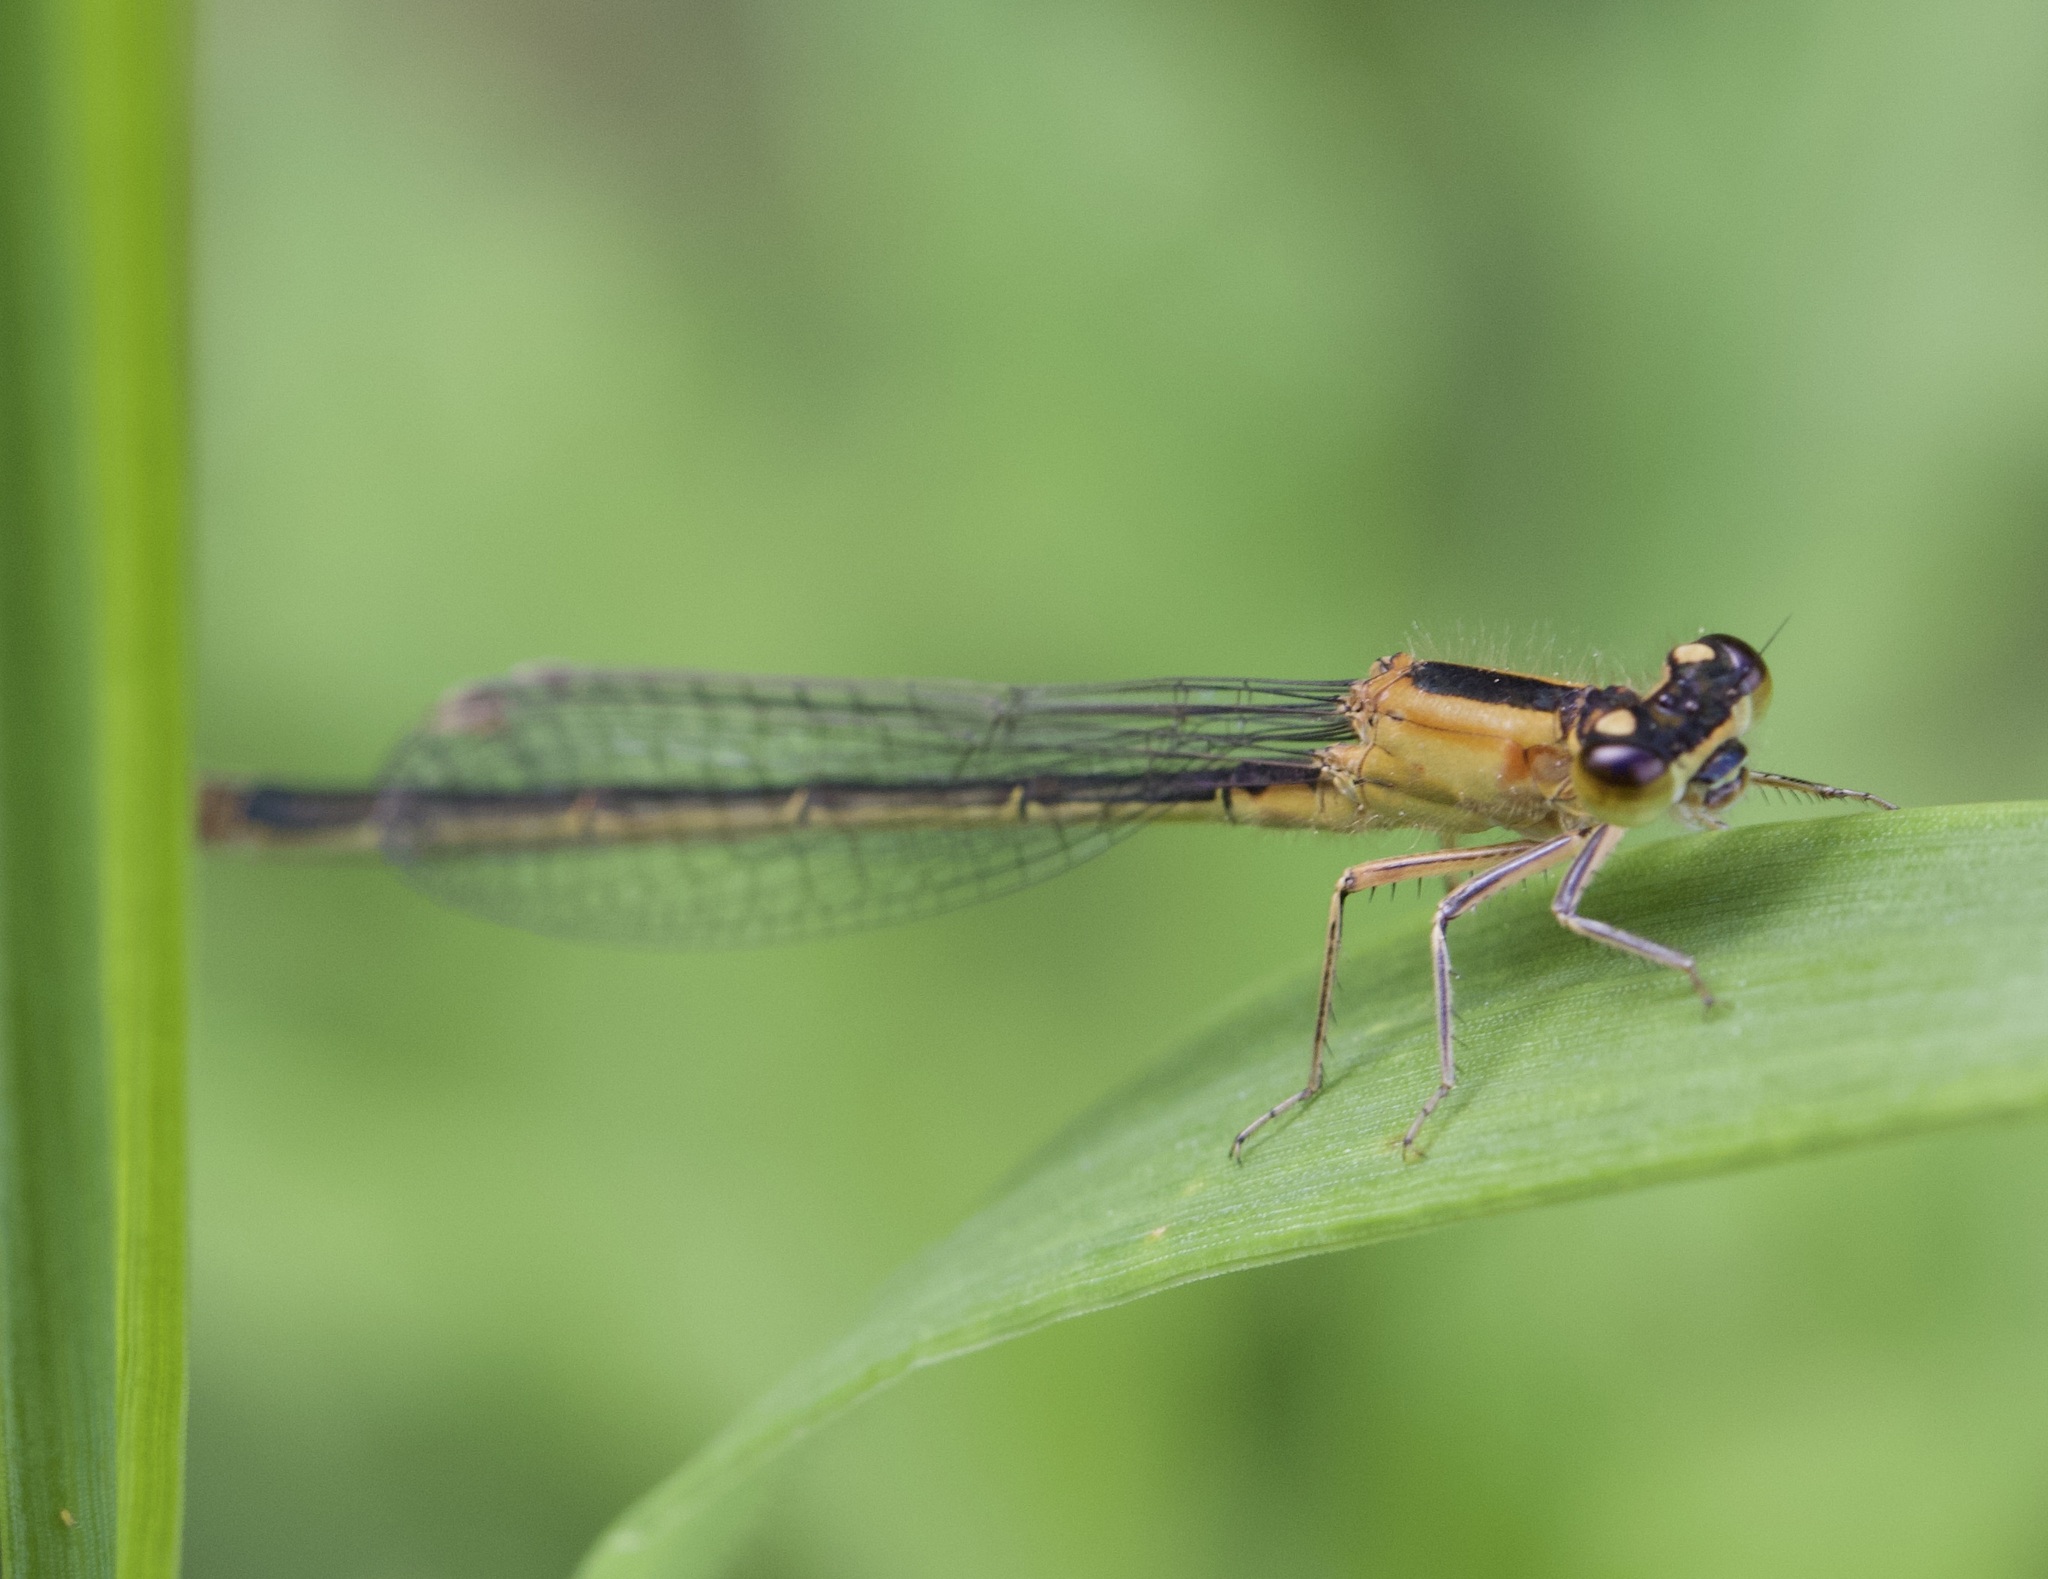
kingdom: Animalia
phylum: Arthropoda
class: Insecta
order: Odonata
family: Coenagrionidae
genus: Ischnura
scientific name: Ischnura elegans
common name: Blue-tailed damselfly
